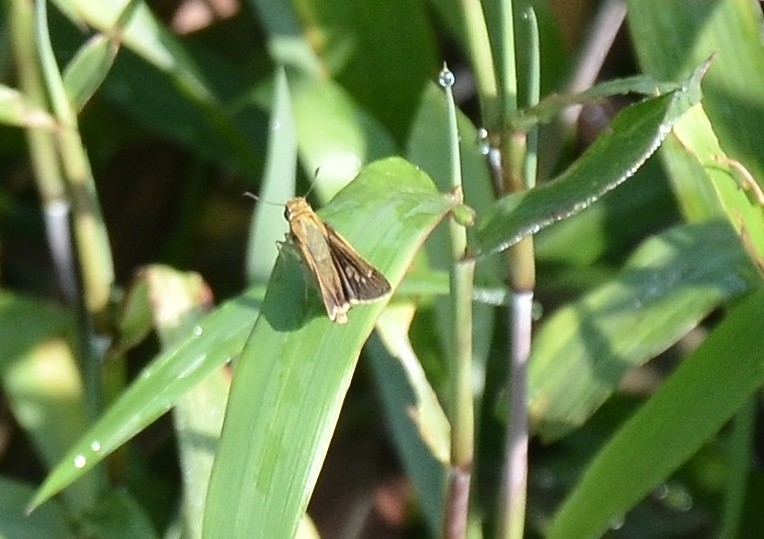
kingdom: Animalia
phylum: Arthropoda
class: Insecta
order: Lepidoptera
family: Hesperiidae
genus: Parnara
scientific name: Parnara naso
